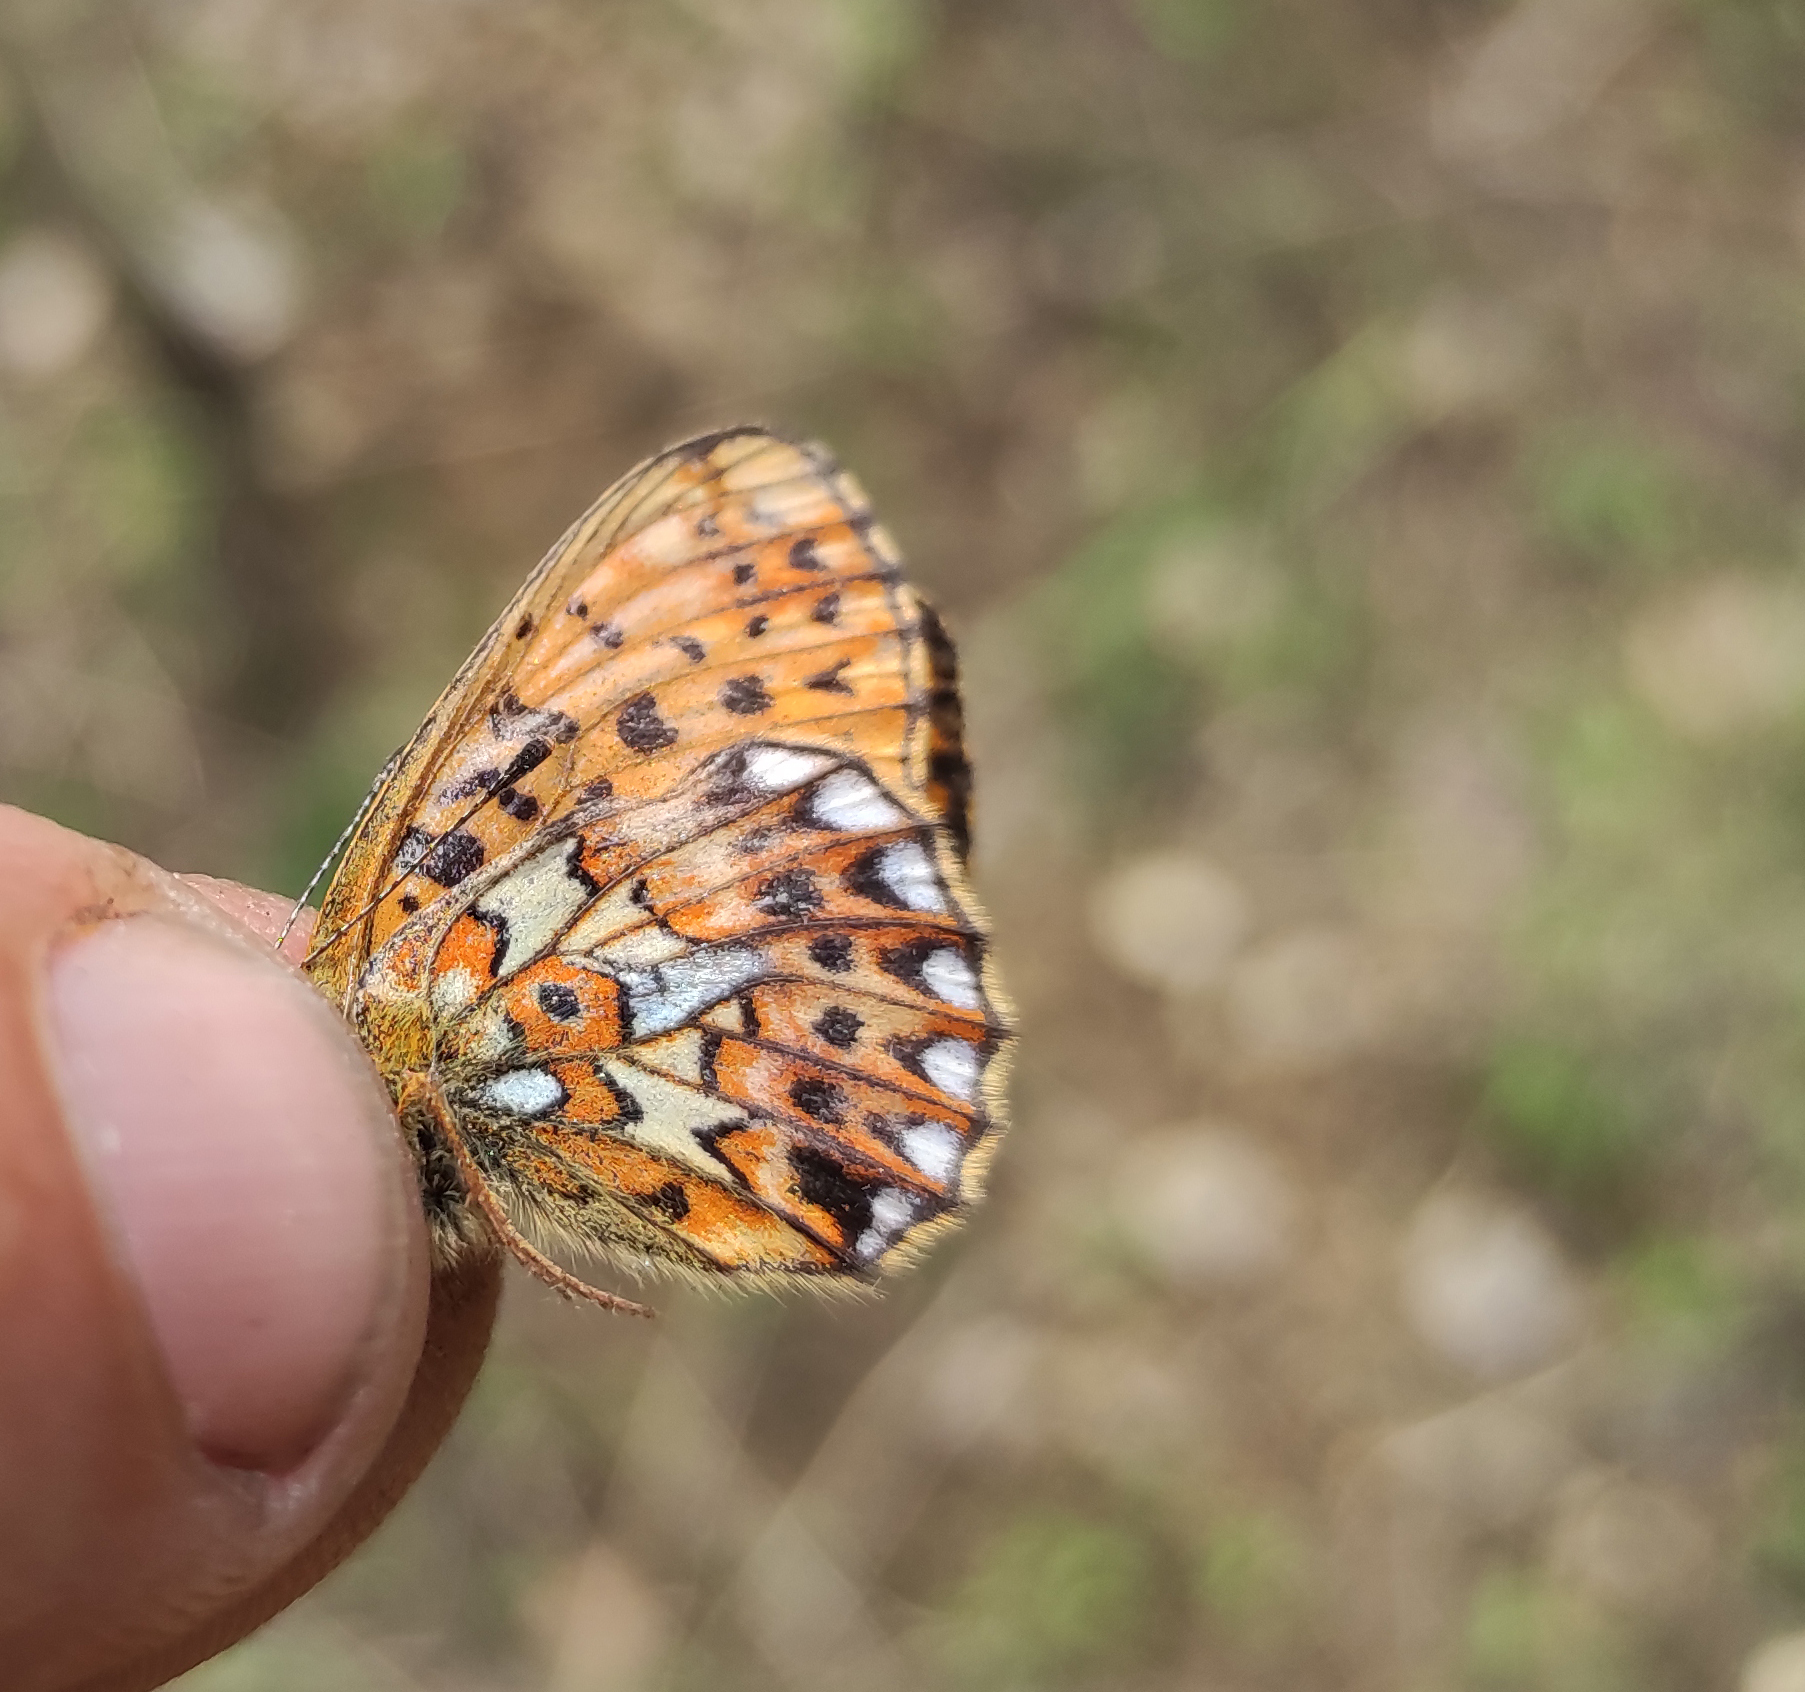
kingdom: Animalia
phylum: Arthropoda
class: Insecta
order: Lepidoptera
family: Nymphalidae
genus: Clossiana
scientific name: Clossiana euphrosyne
